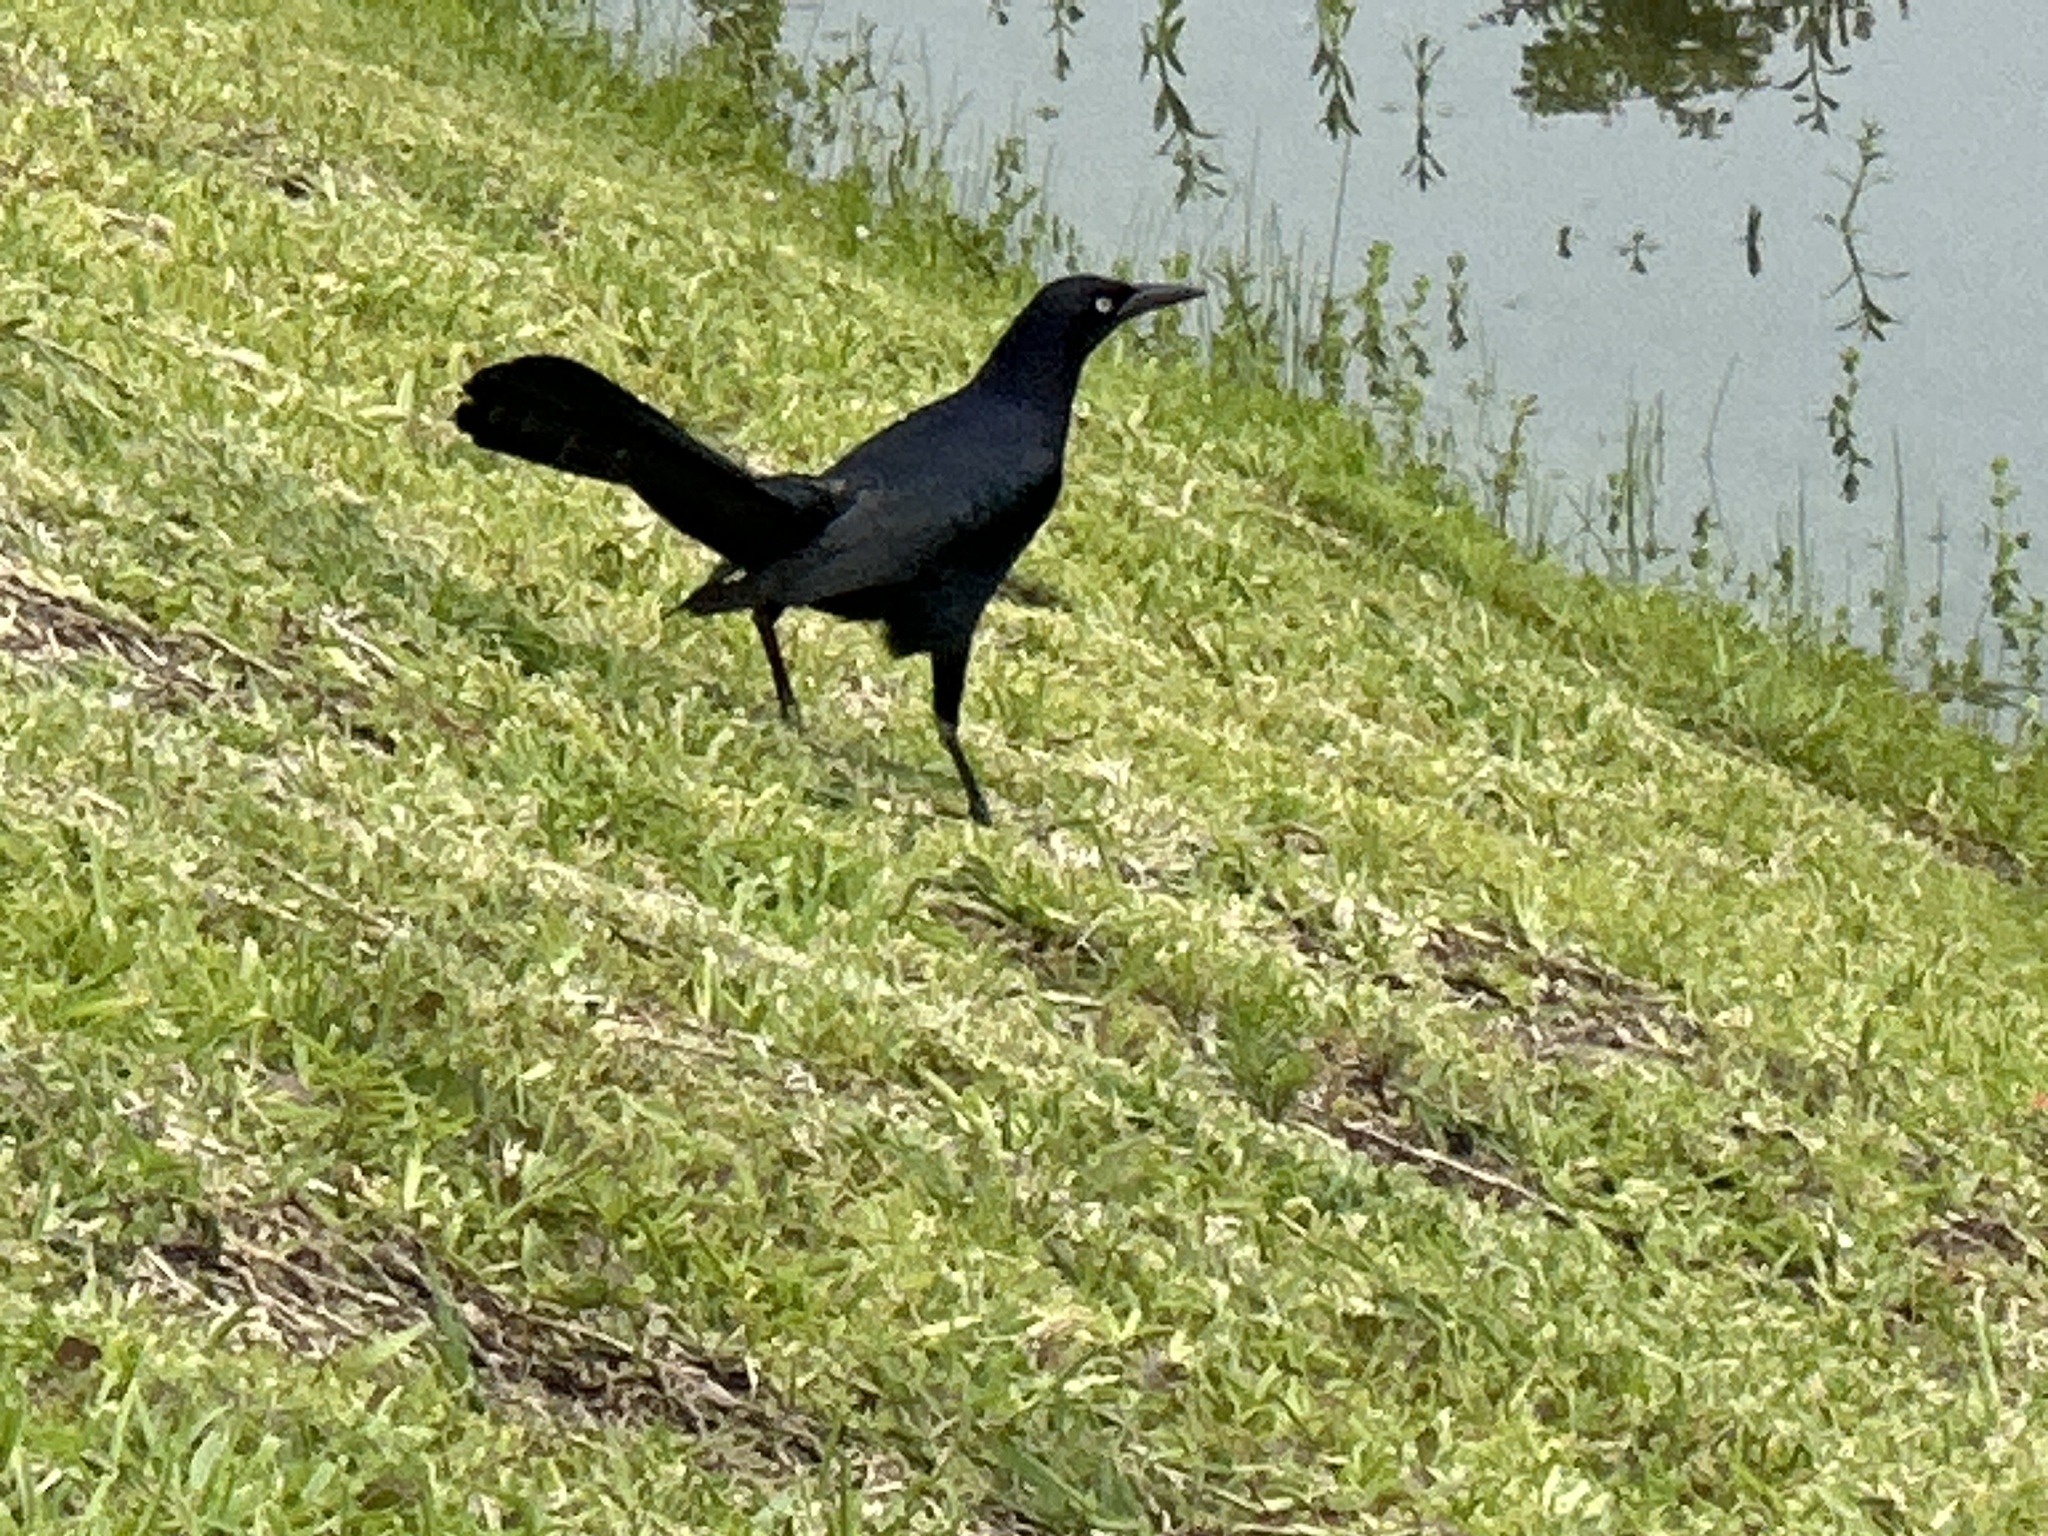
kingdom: Animalia
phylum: Chordata
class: Aves
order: Passeriformes
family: Icteridae
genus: Quiscalus
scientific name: Quiscalus mexicanus
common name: Great-tailed grackle
